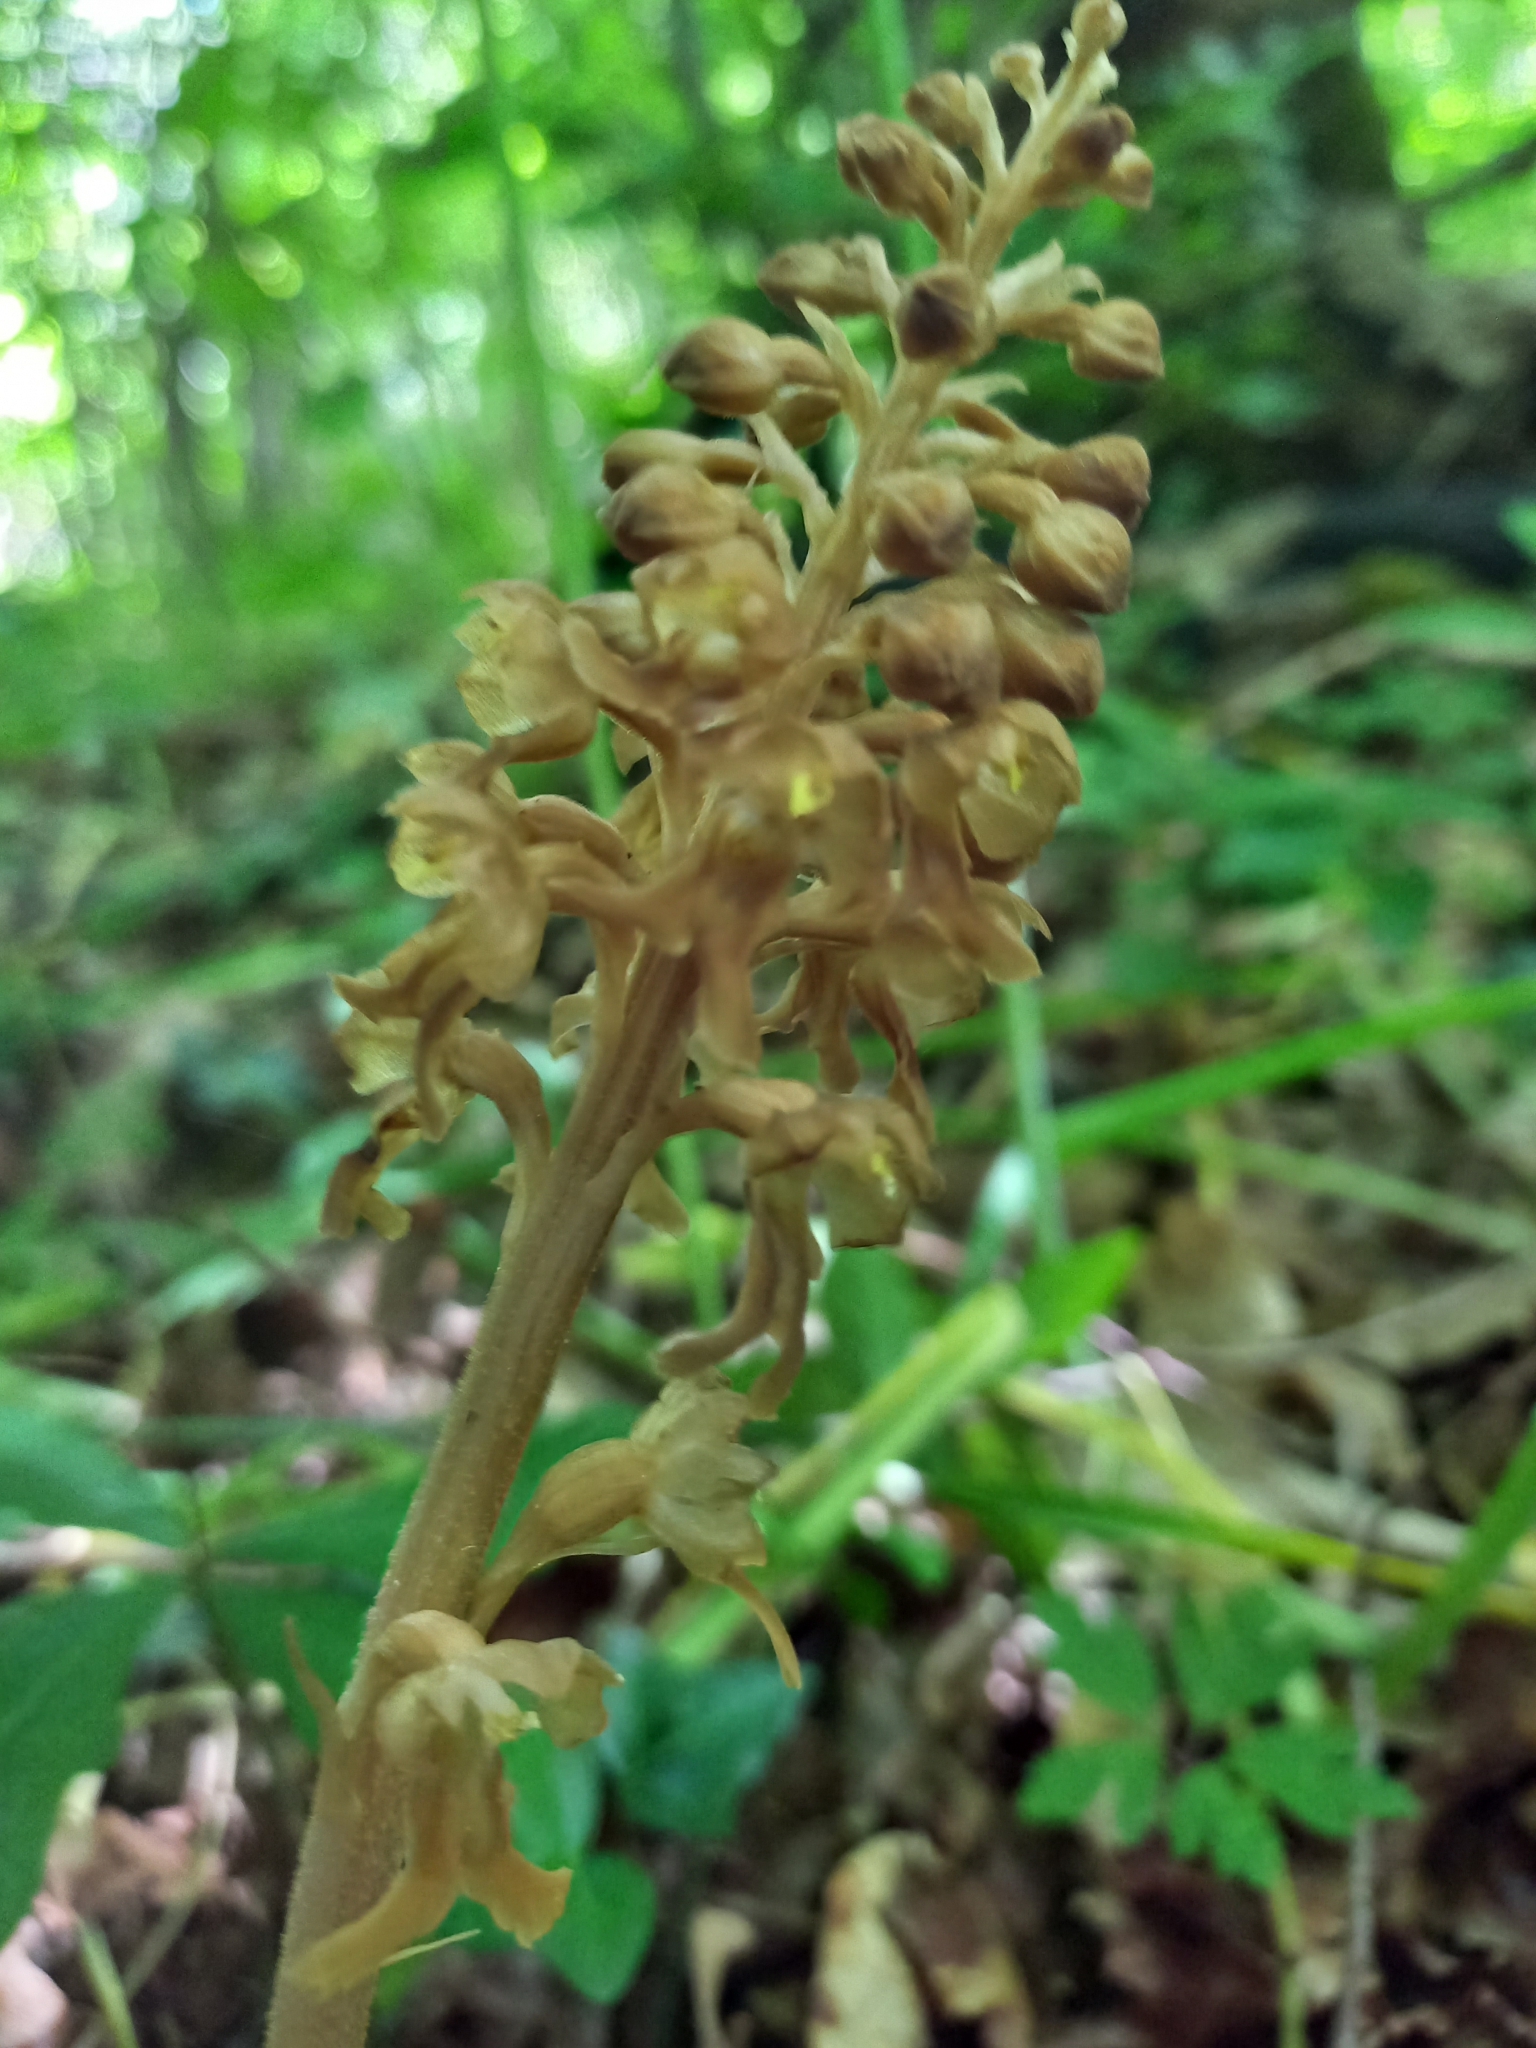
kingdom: Plantae
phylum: Tracheophyta
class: Liliopsida
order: Asparagales
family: Orchidaceae
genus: Neottia
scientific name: Neottia nidus-avis
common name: Bird's-nest orchid
